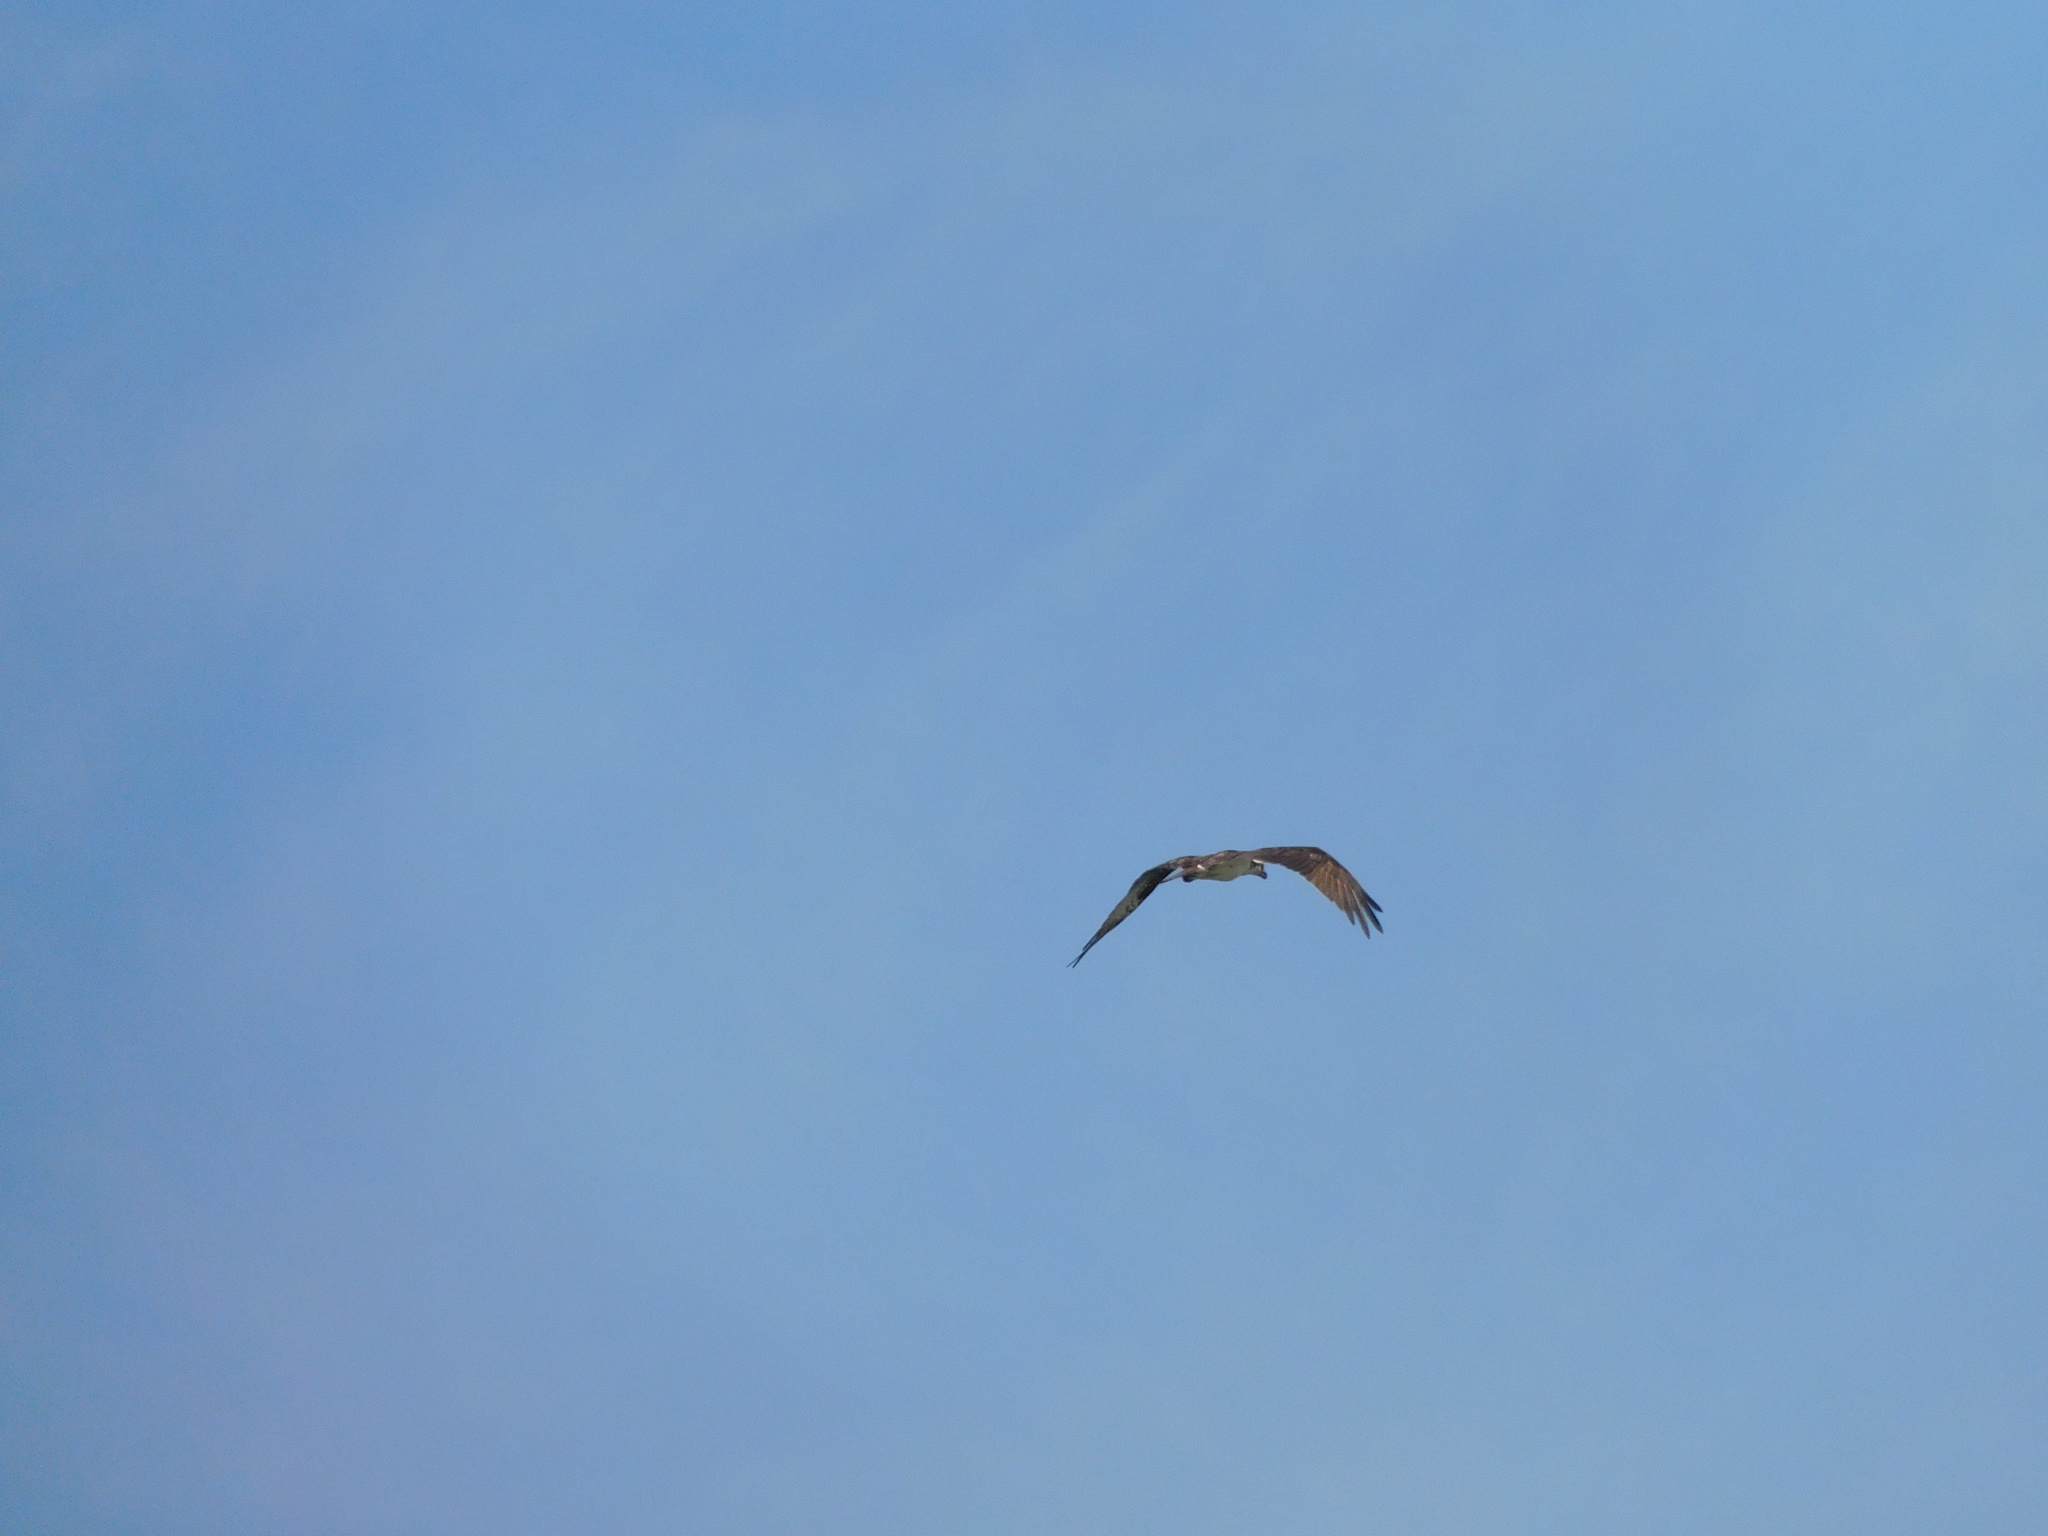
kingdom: Animalia
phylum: Chordata
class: Aves
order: Accipitriformes
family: Pandionidae
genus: Pandion
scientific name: Pandion haliaetus
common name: Osprey
